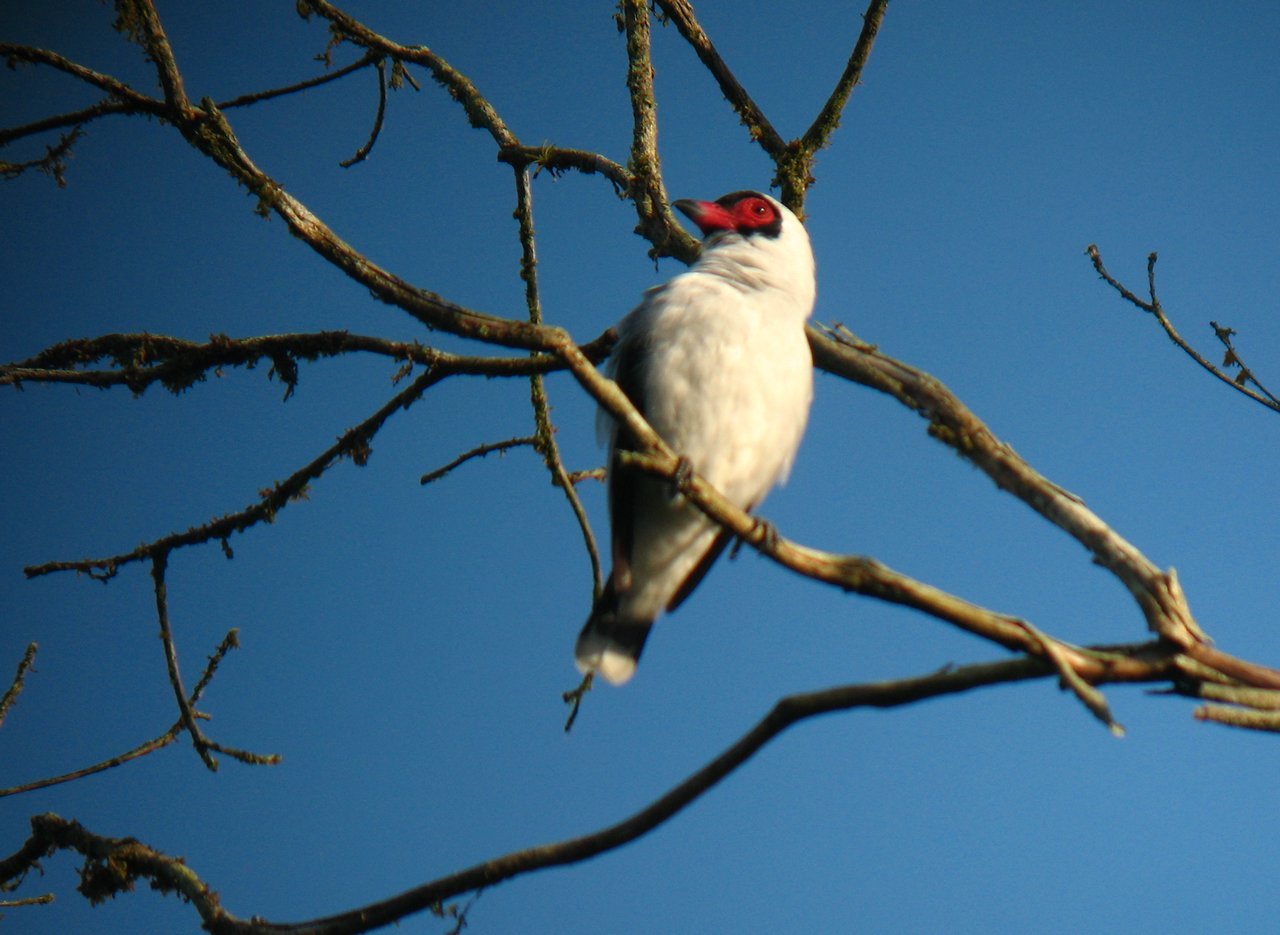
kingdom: Animalia
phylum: Chordata
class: Aves
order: Passeriformes
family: Cotingidae
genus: Tityra
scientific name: Tityra semifasciata
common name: Masked tityra
